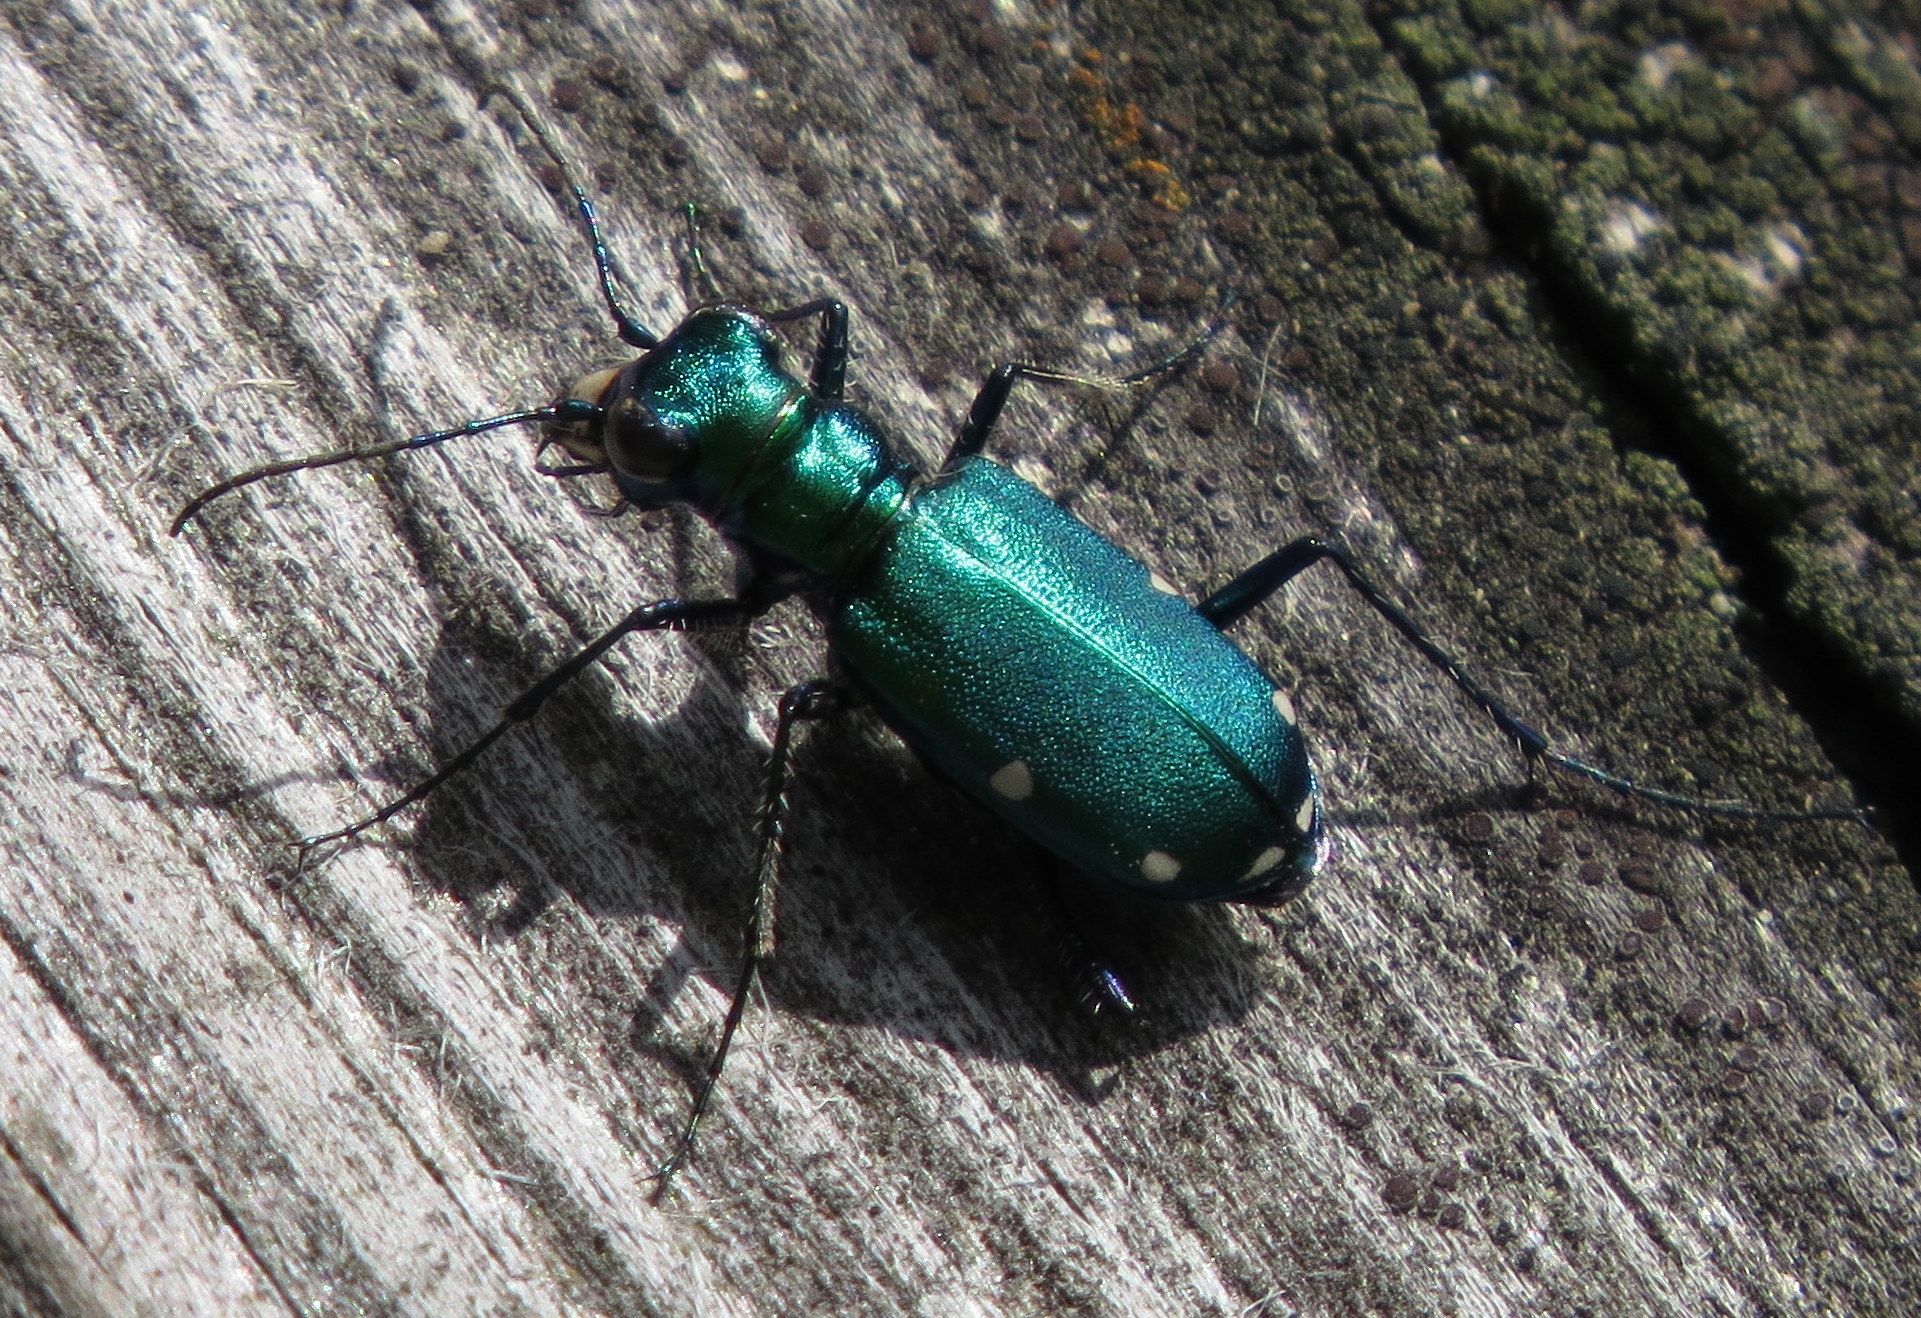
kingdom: Animalia
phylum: Arthropoda
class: Insecta
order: Coleoptera
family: Carabidae
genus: Cicindela
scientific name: Cicindela sexguttata
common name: Six-spotted tiger beetle
